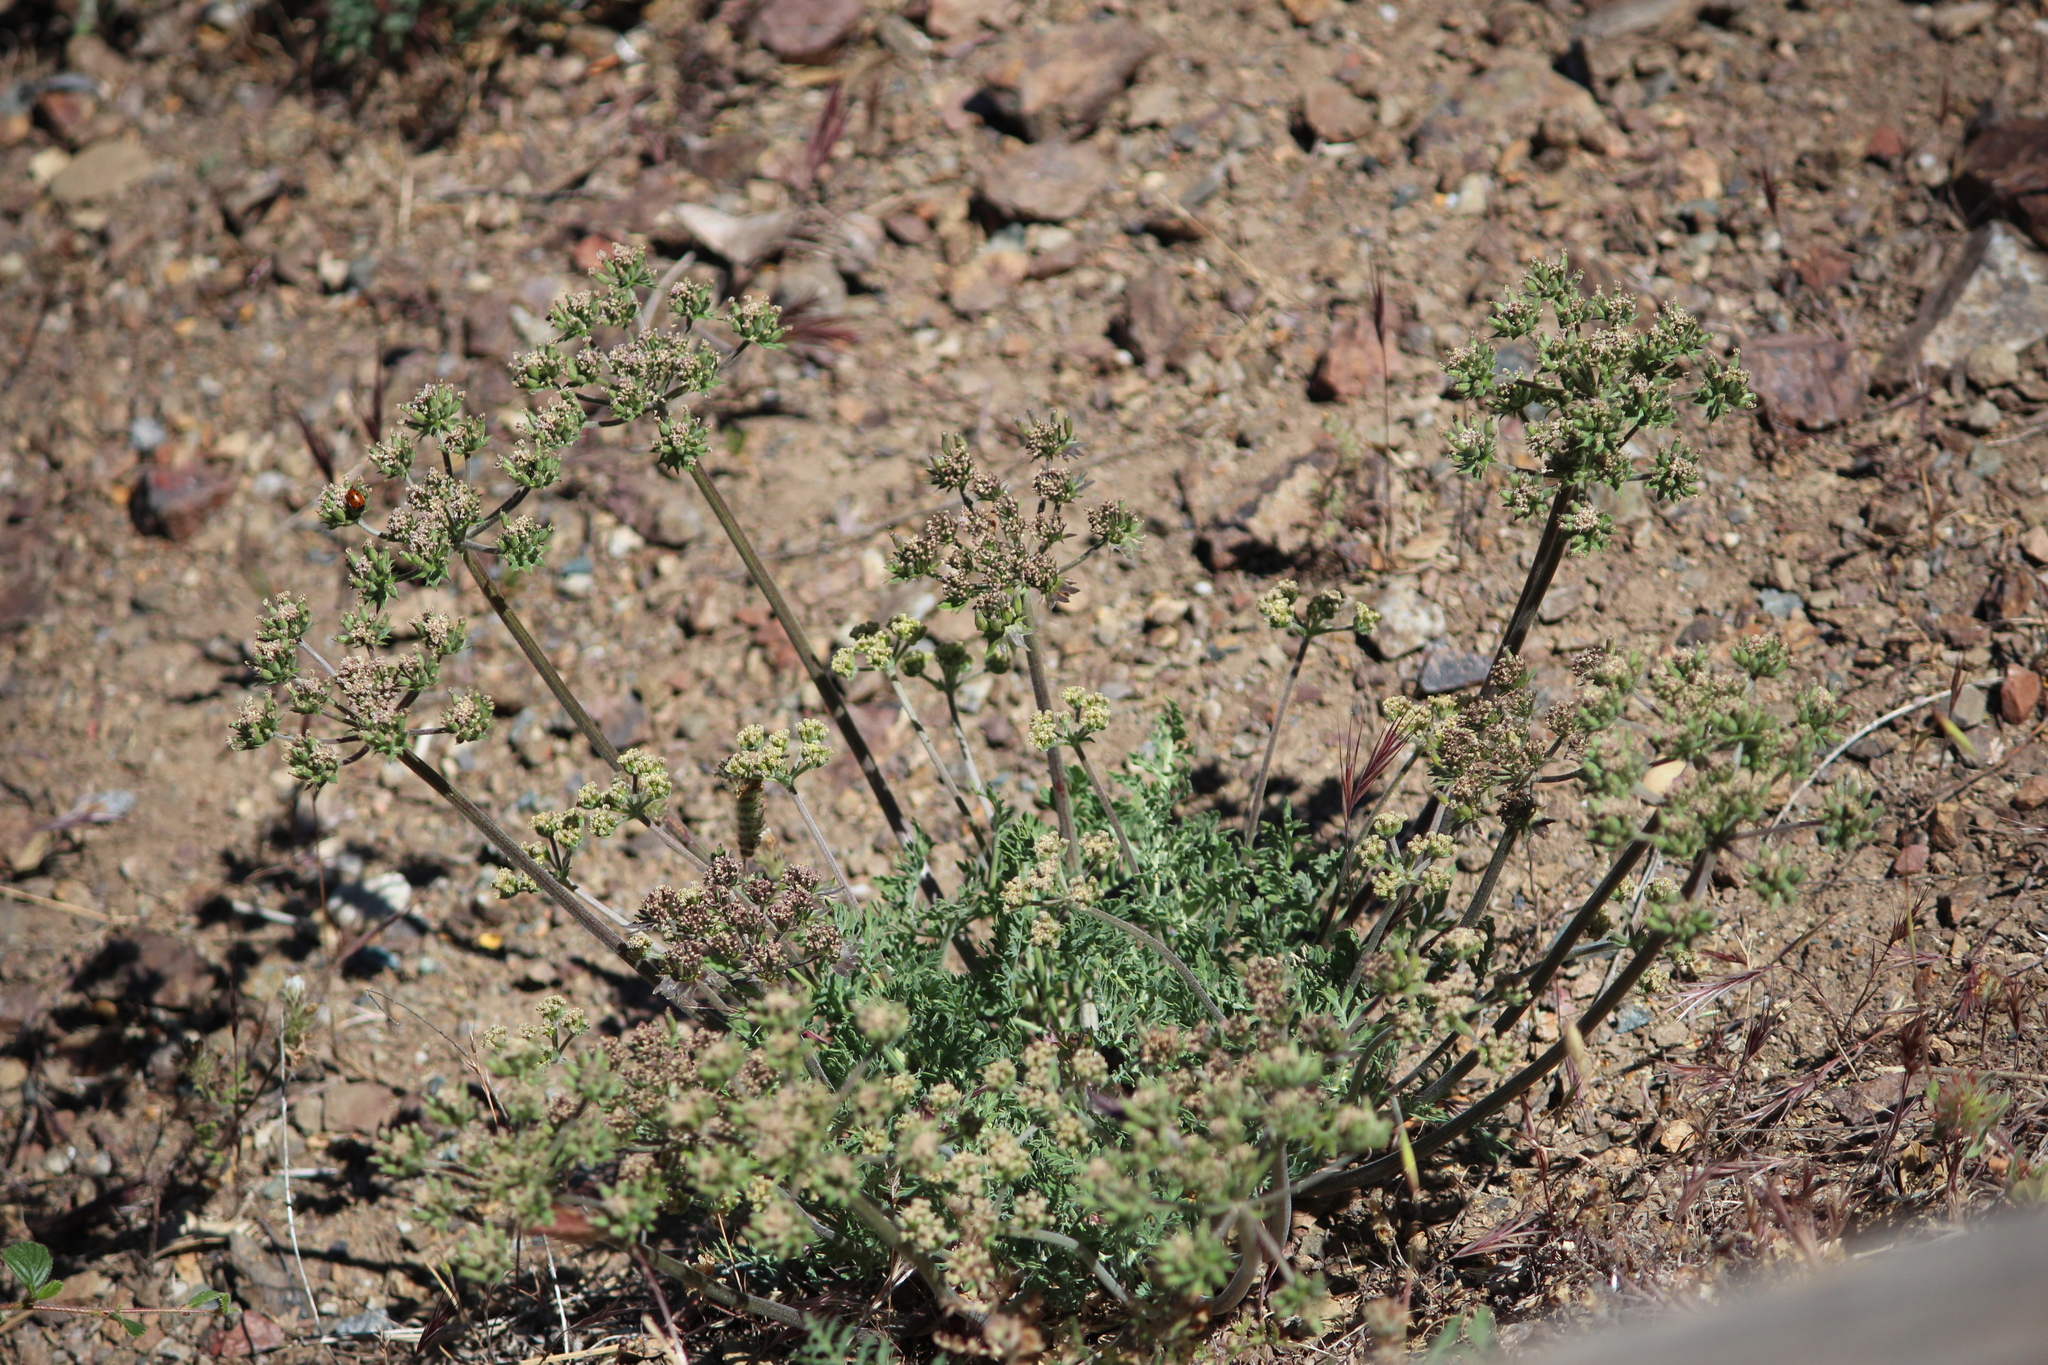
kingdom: Plantae
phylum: Tracheophyta
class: Magnoliopsida
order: Apiales
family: Apiaceae
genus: Lomatium
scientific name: Lomatium macrocarpum
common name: Big-seed biscuitroot
